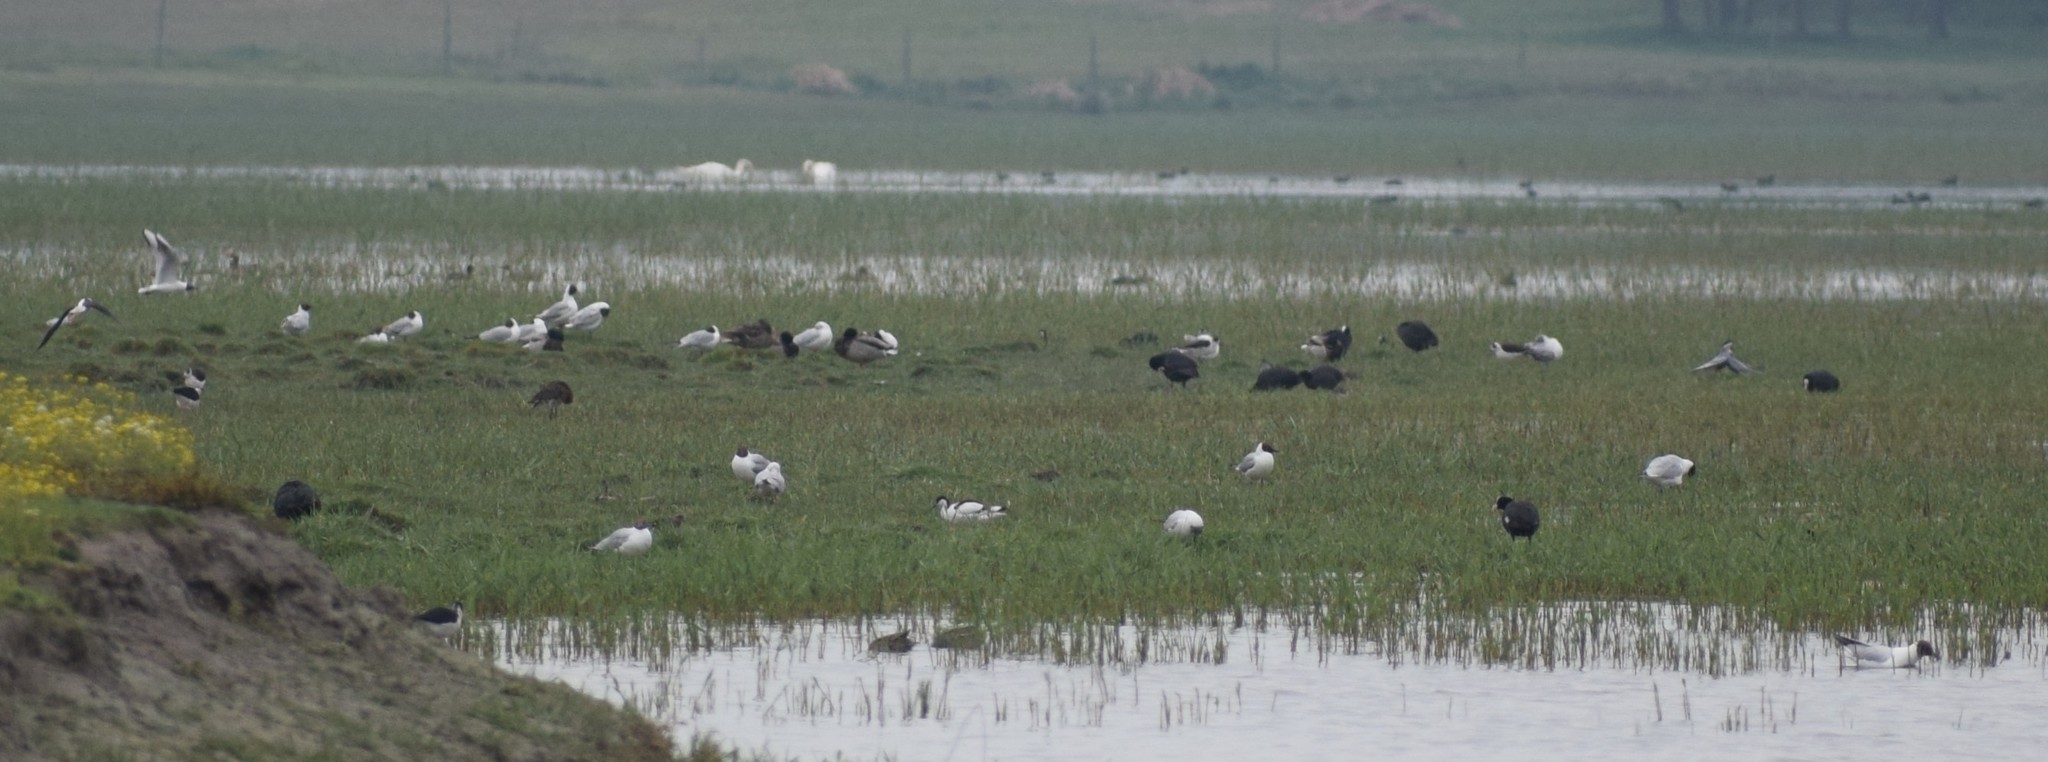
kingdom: Animalia
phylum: Chordata
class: Aves
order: Gruiformes
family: Rallidae
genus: Fulica
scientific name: Fulica atra
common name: Eurasian coot
